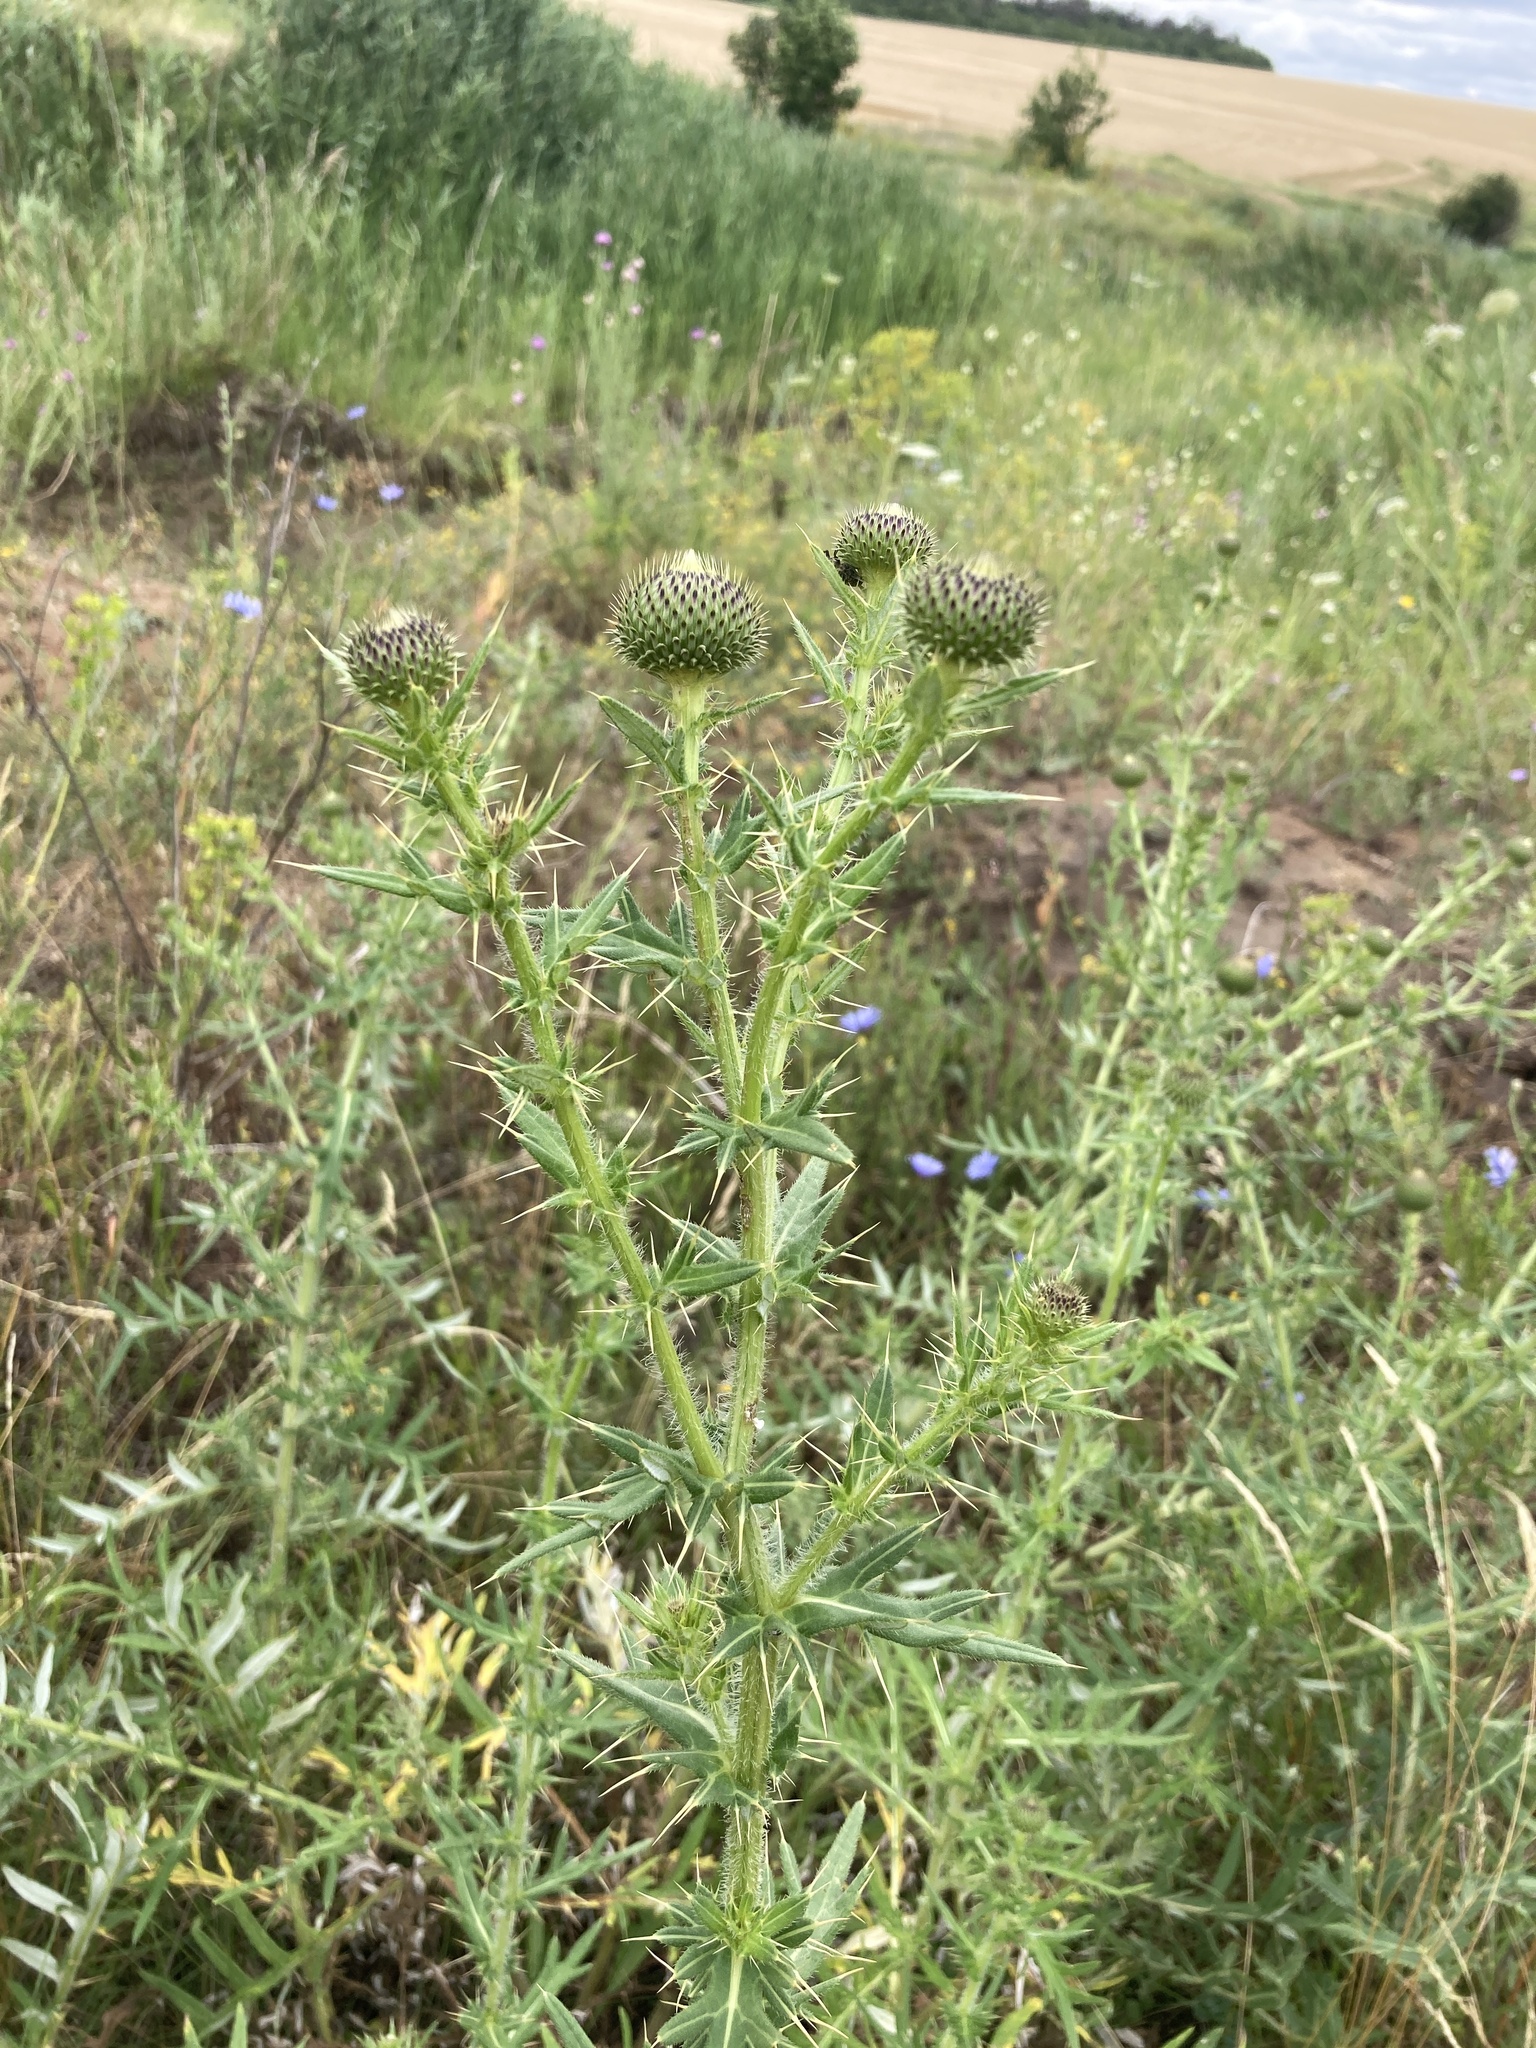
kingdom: Plantae
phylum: Tracheophyta
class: Magnoliopsida
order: Asterales
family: Asteraceae
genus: Cirsium
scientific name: Cirsium serrulatum
